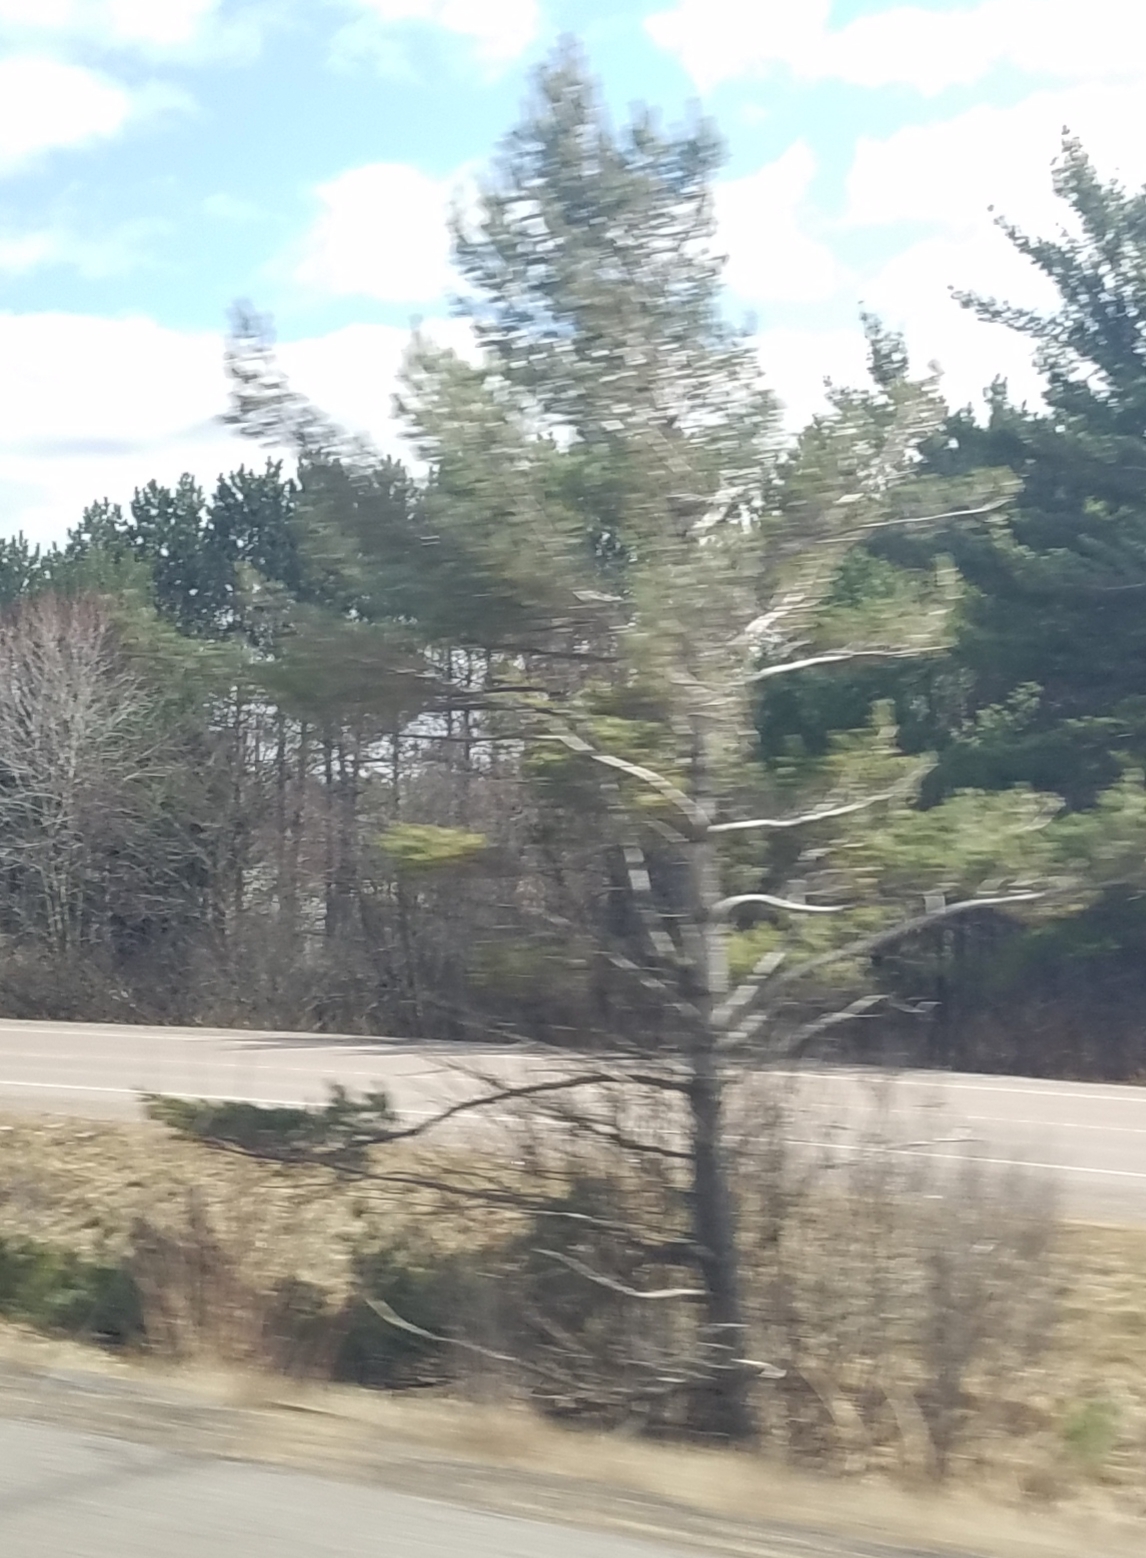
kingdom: Plantae
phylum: Tracheophyta
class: Pinopsida
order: Pinales
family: Pinaceae
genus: Pinus
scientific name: Pinus strobus
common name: Weymouth pine
